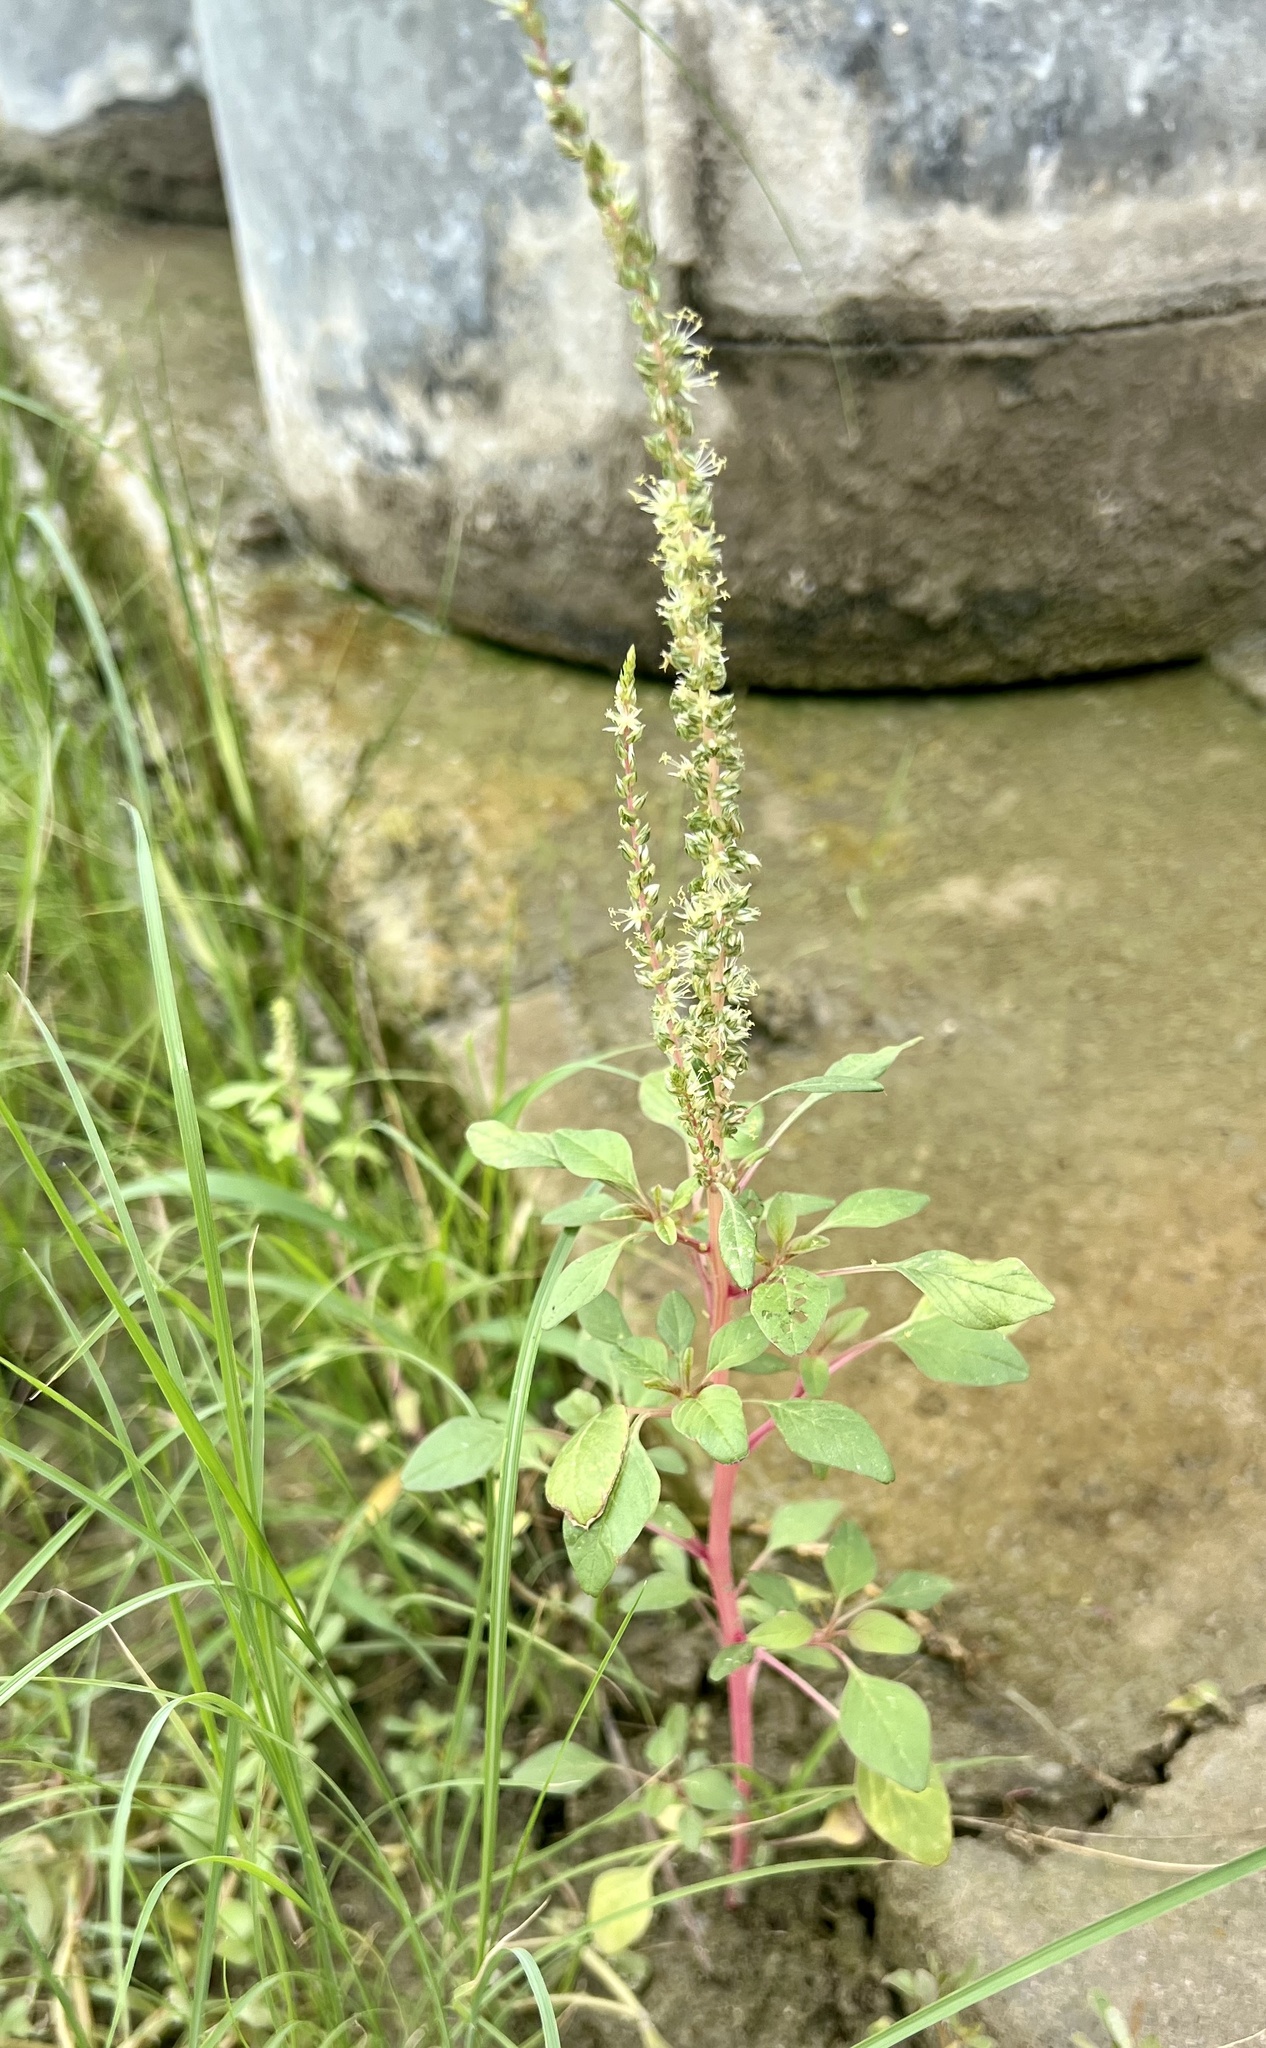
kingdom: Plantae
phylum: Tracheophyta
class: Magnoliopsida
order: Caryophyllales
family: Amaranthaceae
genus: Amaranthus
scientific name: Amaranthus palmeri
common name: Dioecious amaranth
